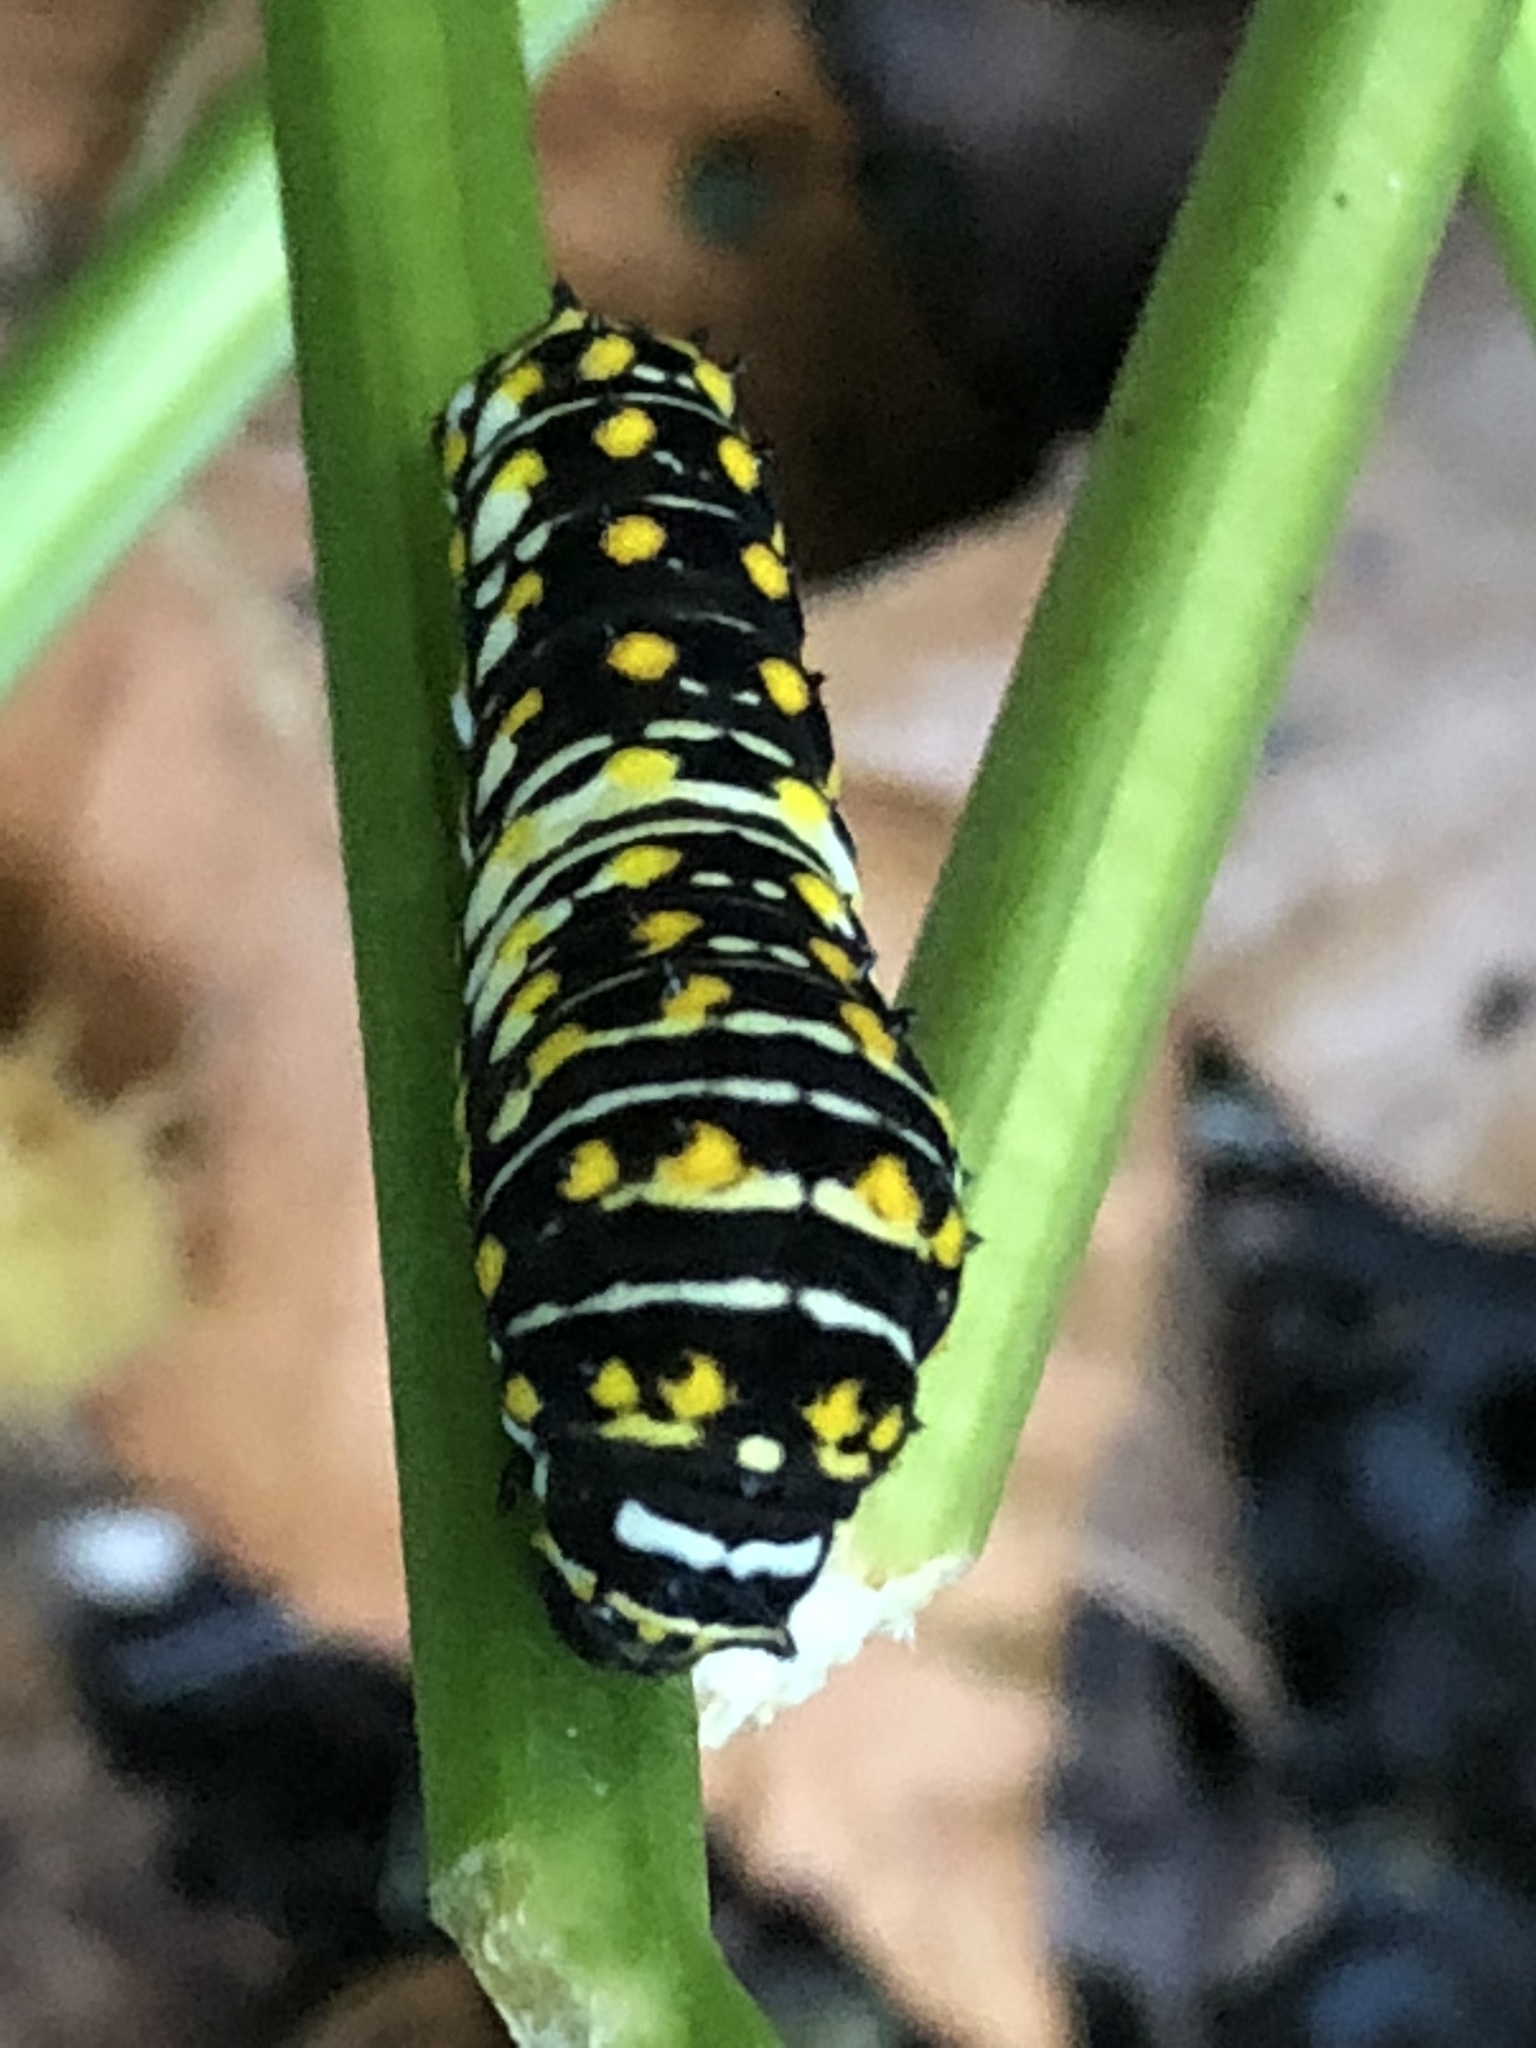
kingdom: Animalia
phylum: Arthropoda
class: Insecta
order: Lepidoptera
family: Papilionidae
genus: Papilio
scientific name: Papilio polyxenes
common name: Black swallowtail
